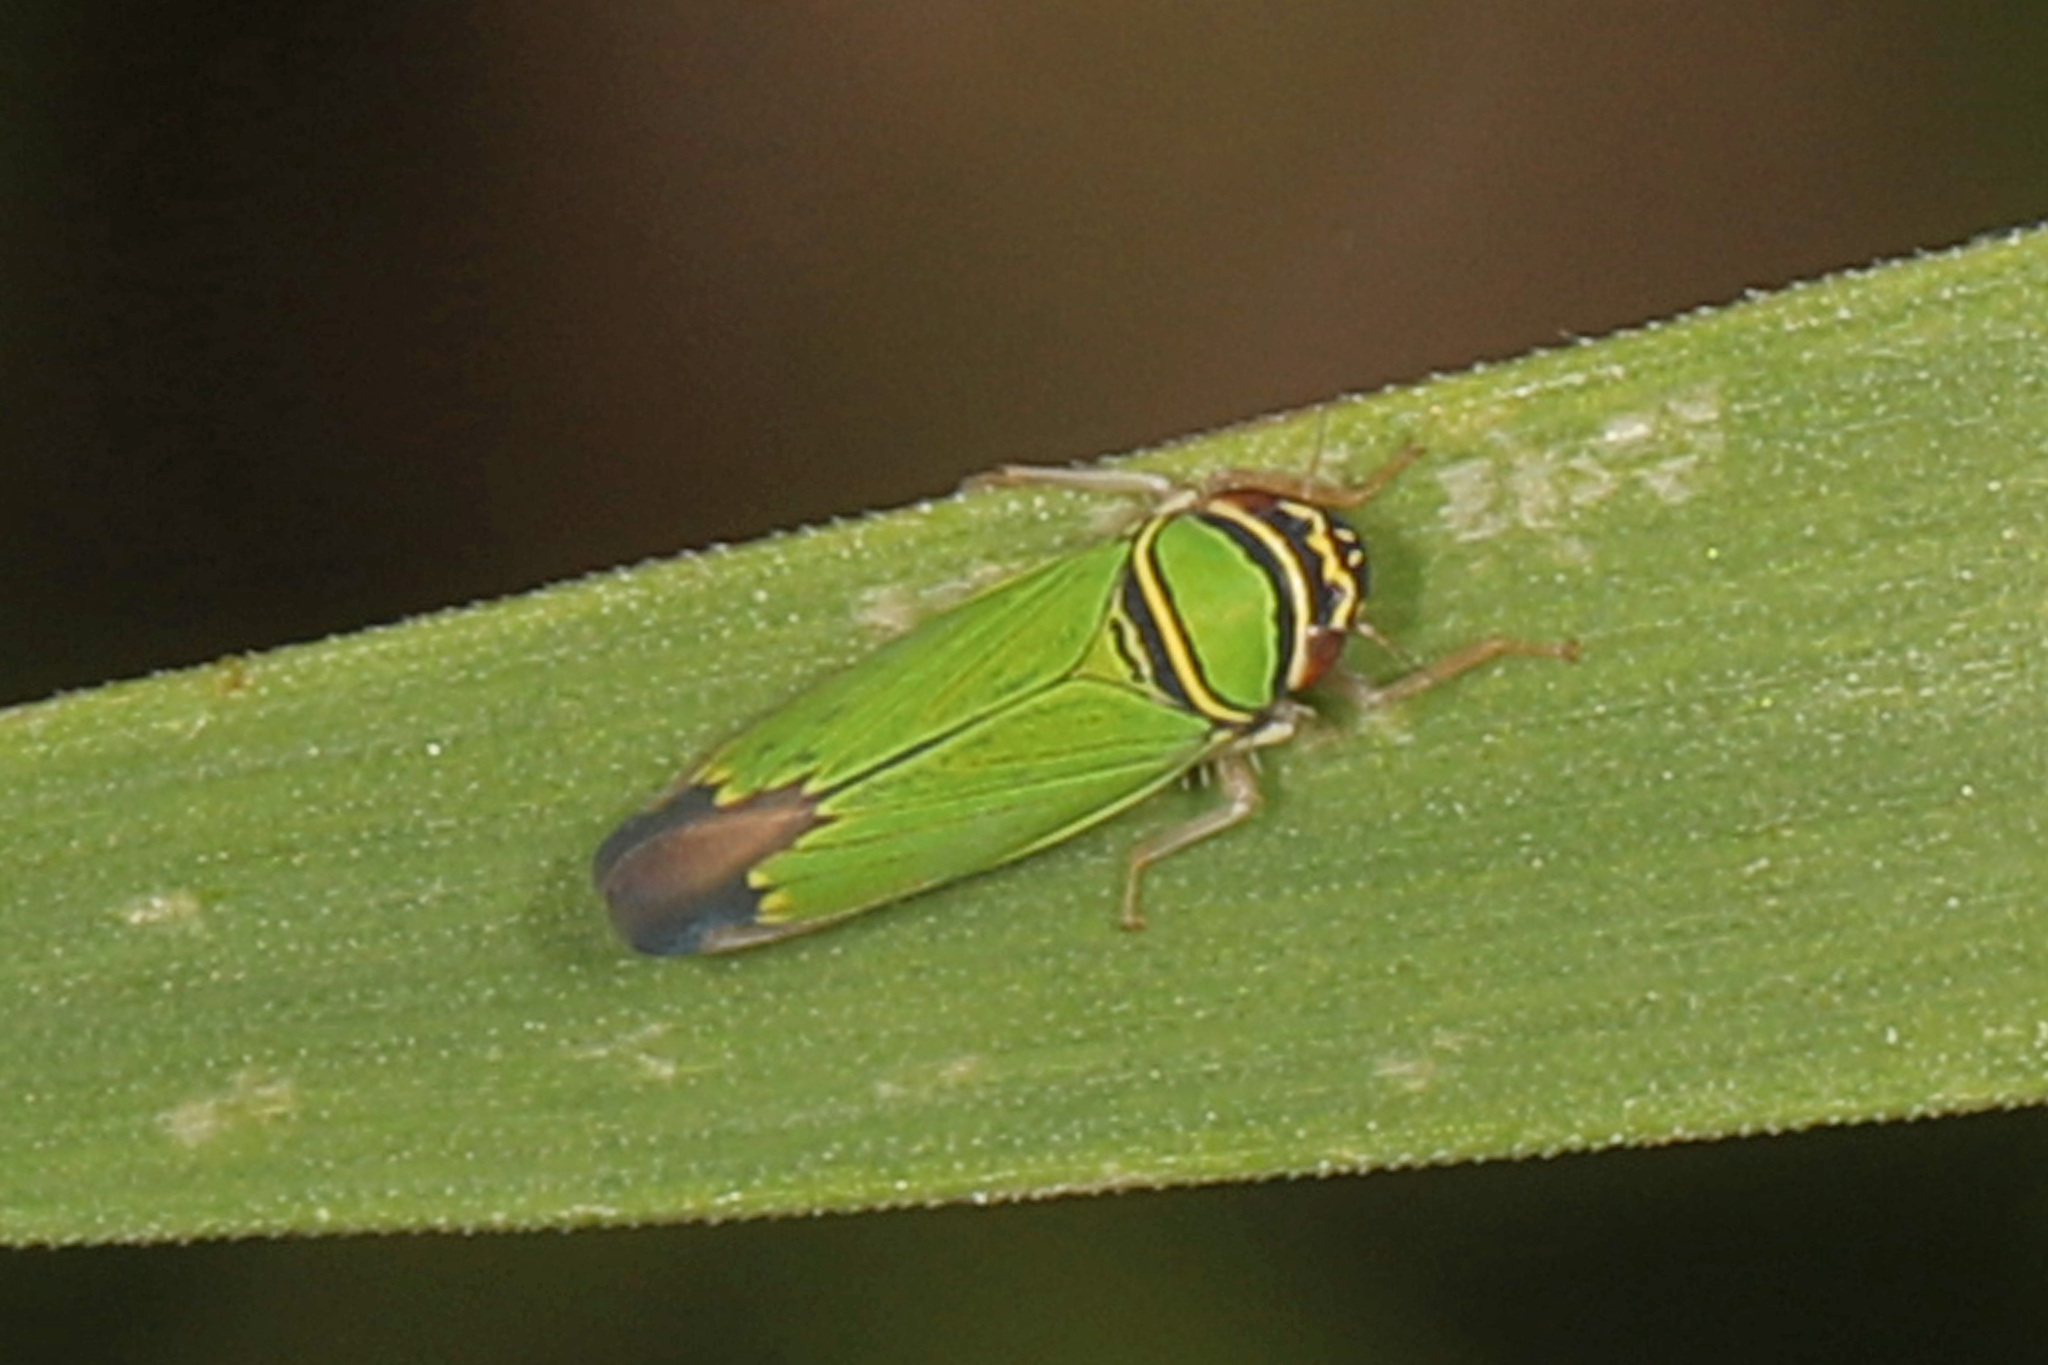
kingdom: Animalia
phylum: Arthropoda
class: Insecta
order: Hemiptera
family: Cicadellidae
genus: Tylozygus
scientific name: Tylozygus geometricus
